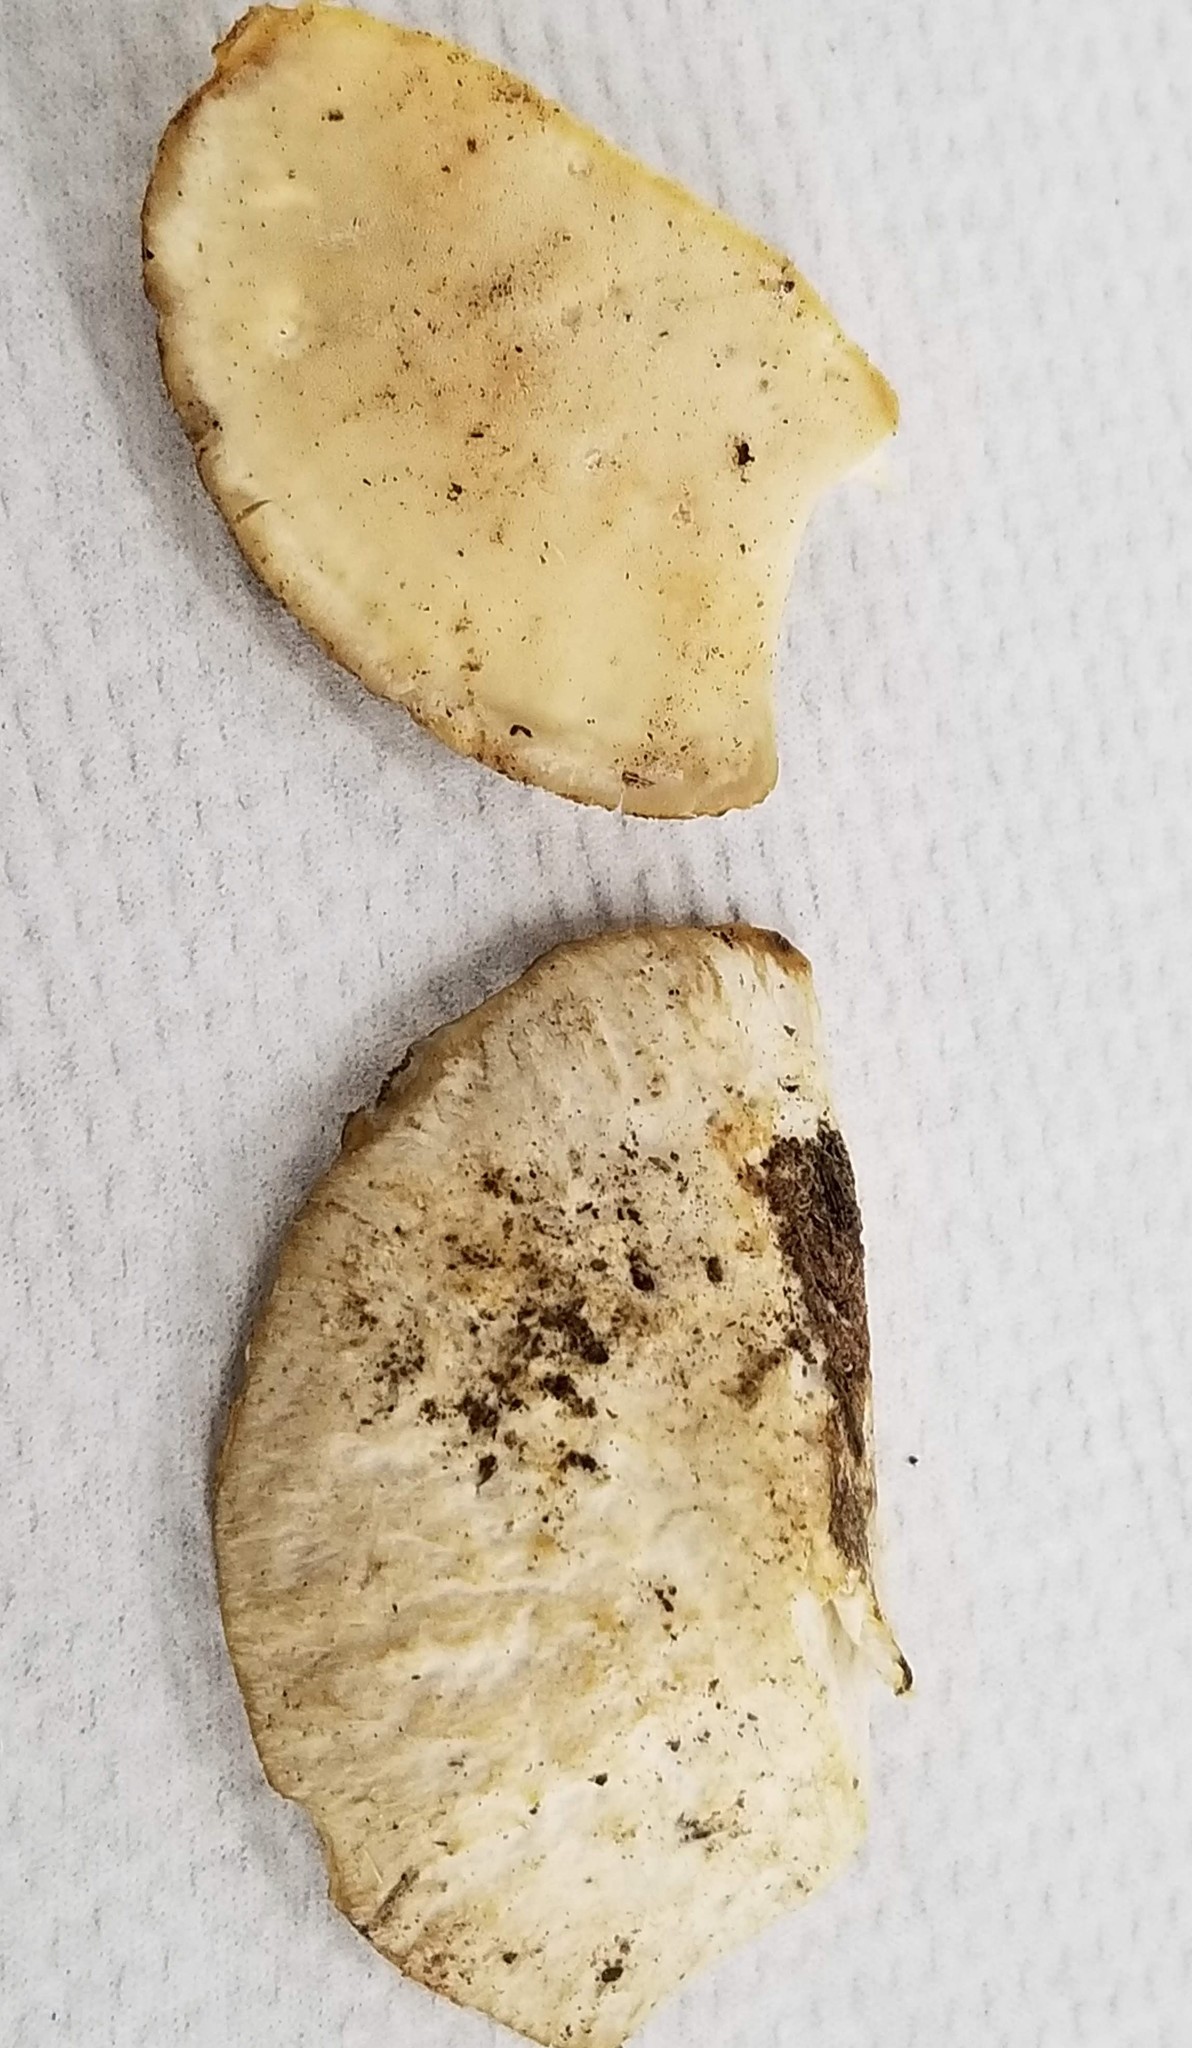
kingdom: Fungi
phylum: Basidiomycota
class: Agaricomycetes
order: Polyporales
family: Incrustoporiaceae
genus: Tyromyces
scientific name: Tyromyces galactinus
